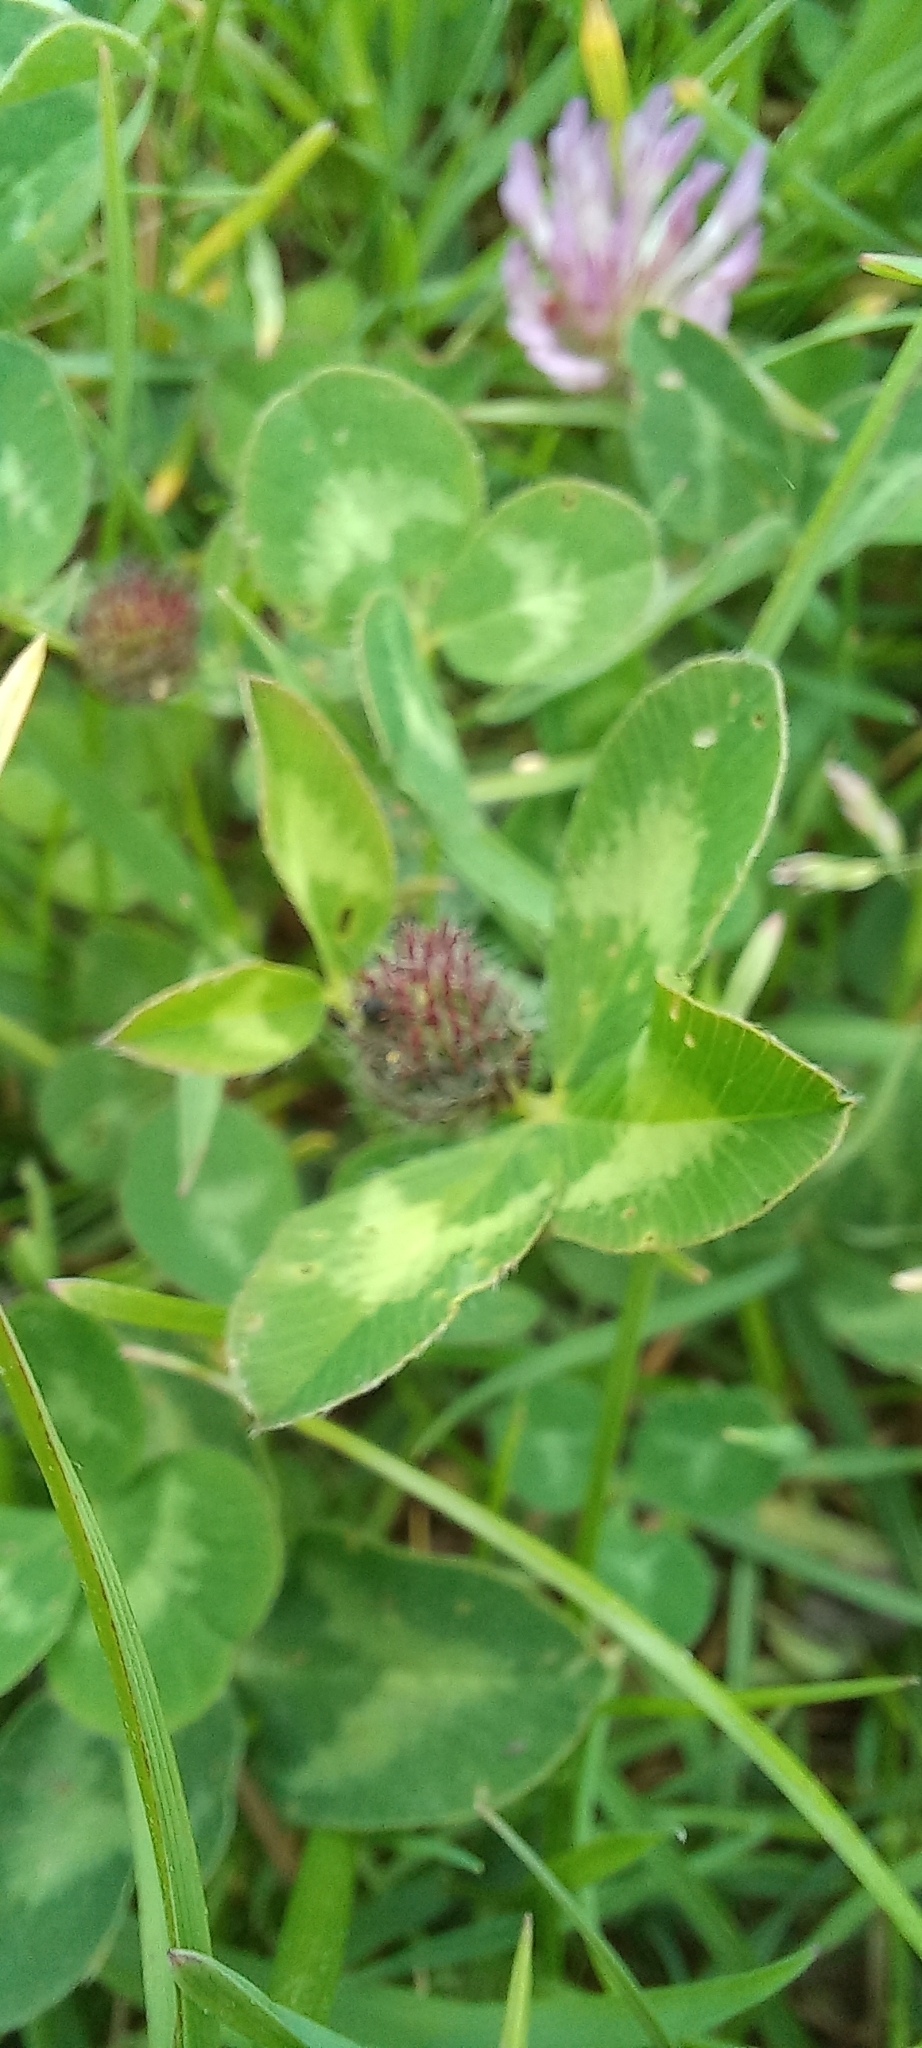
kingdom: Plantae
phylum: Tracheophyta
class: Magnoliopsida
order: Fabales
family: Fabaceae
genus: Trifolium
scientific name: Trifolium pratense
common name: Red clover
